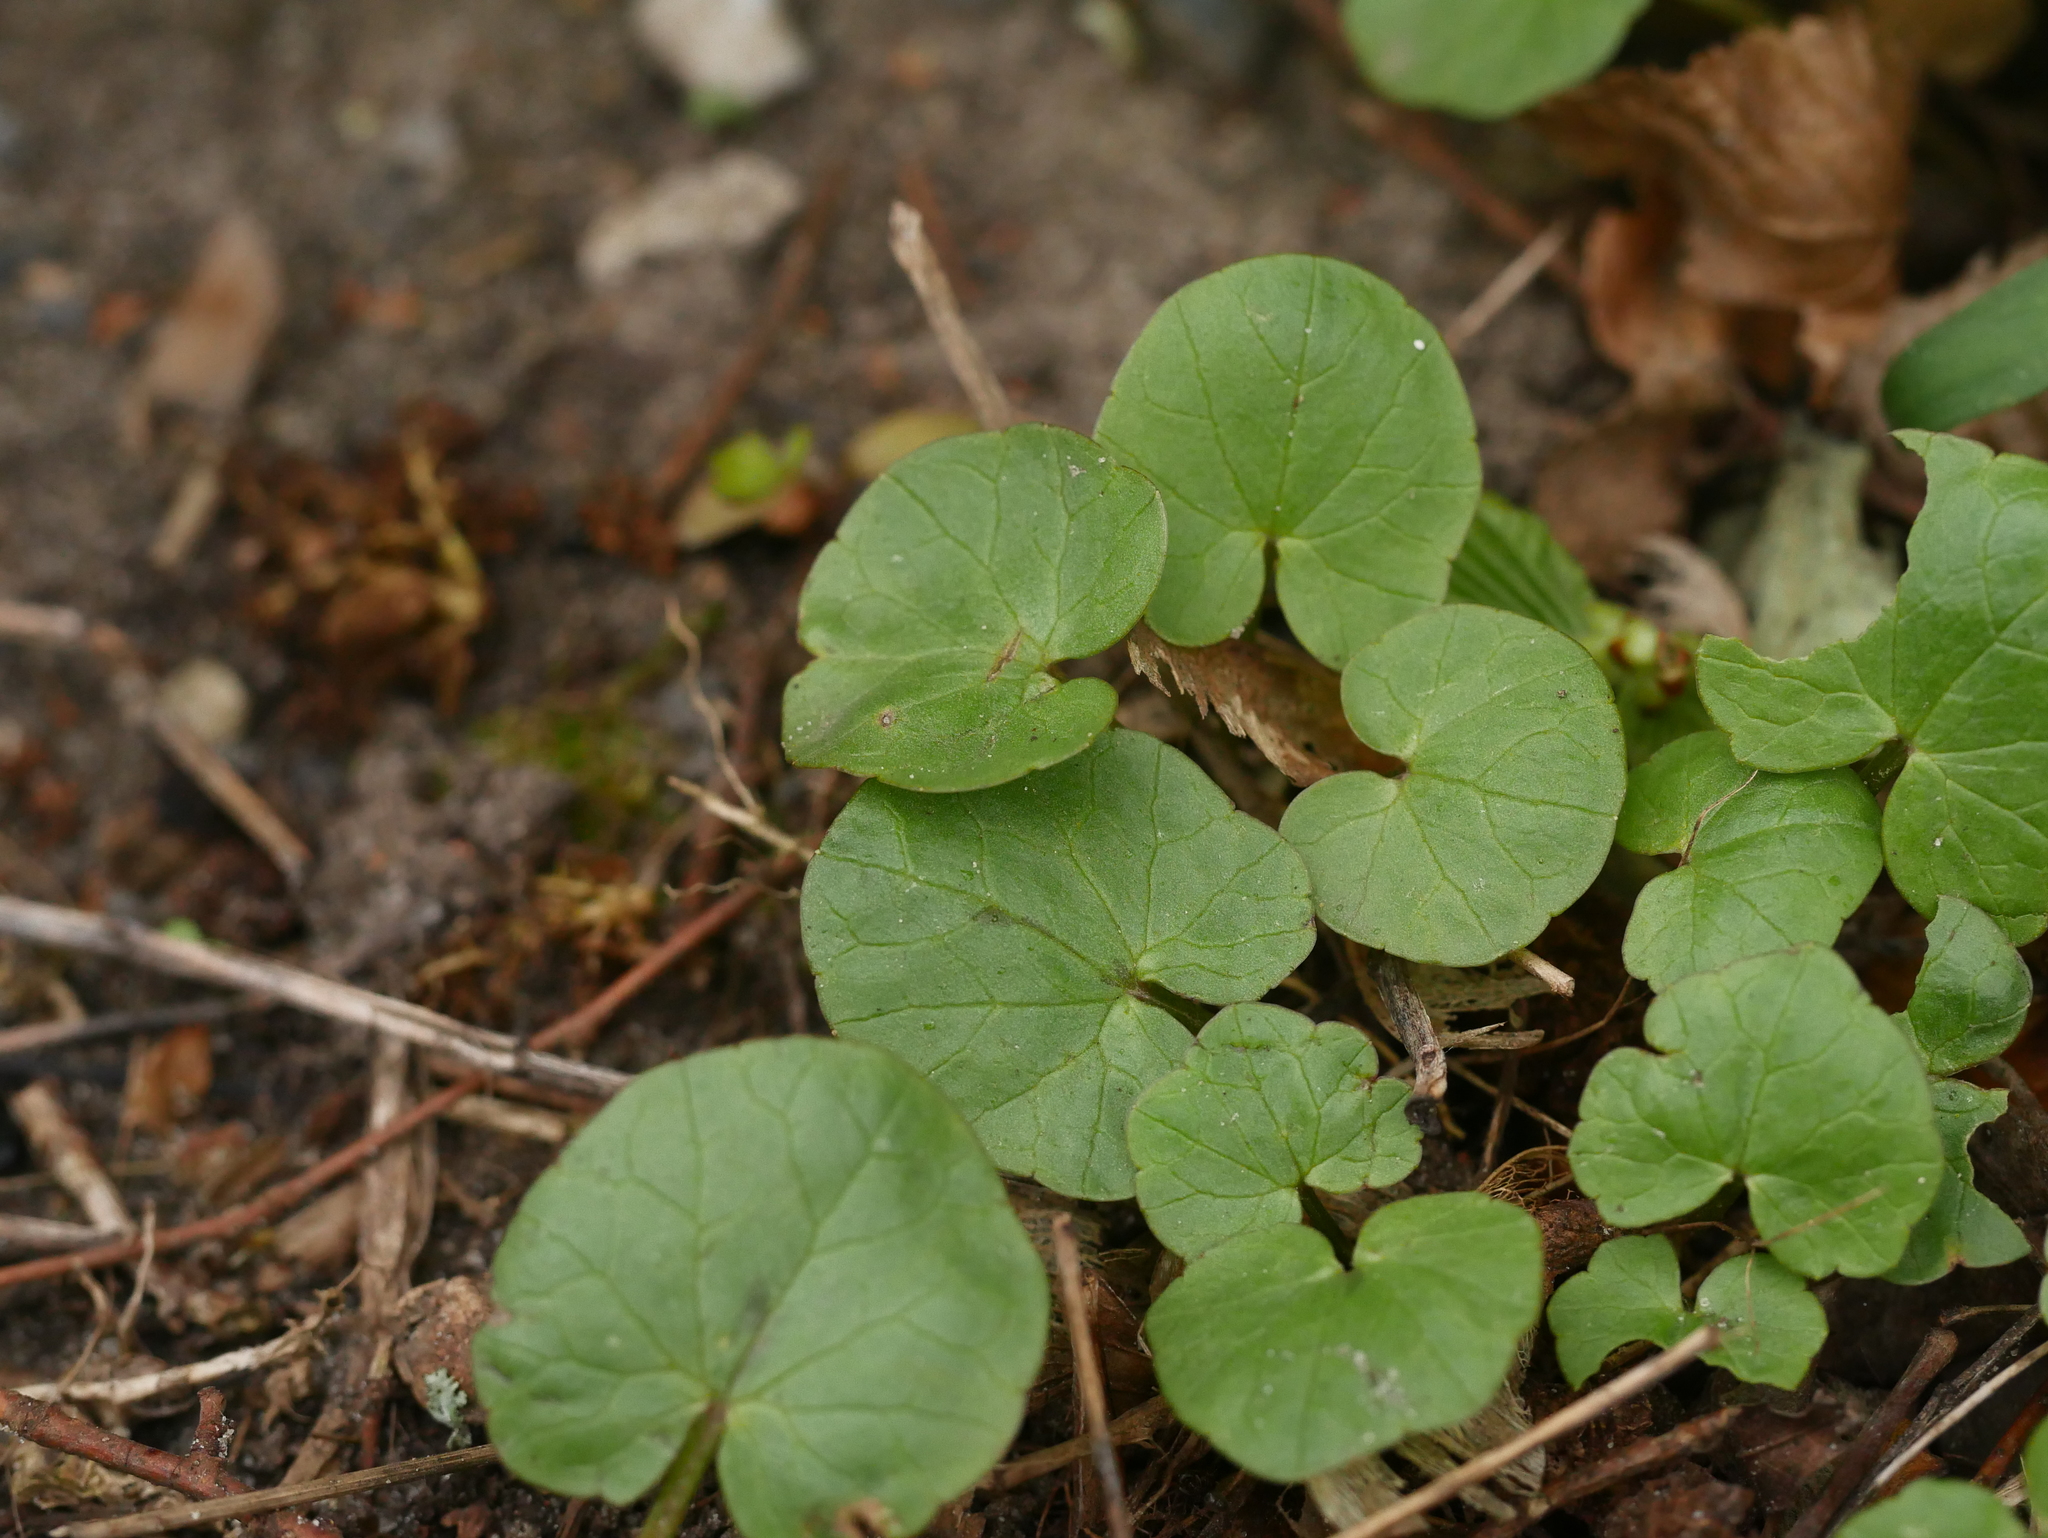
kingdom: Plantae
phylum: Tracheophyta
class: Magnoliopsida
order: Ranunculales
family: Ranunculaceae
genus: Ficaria
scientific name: Ficaria verna
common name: Lesser celandine
